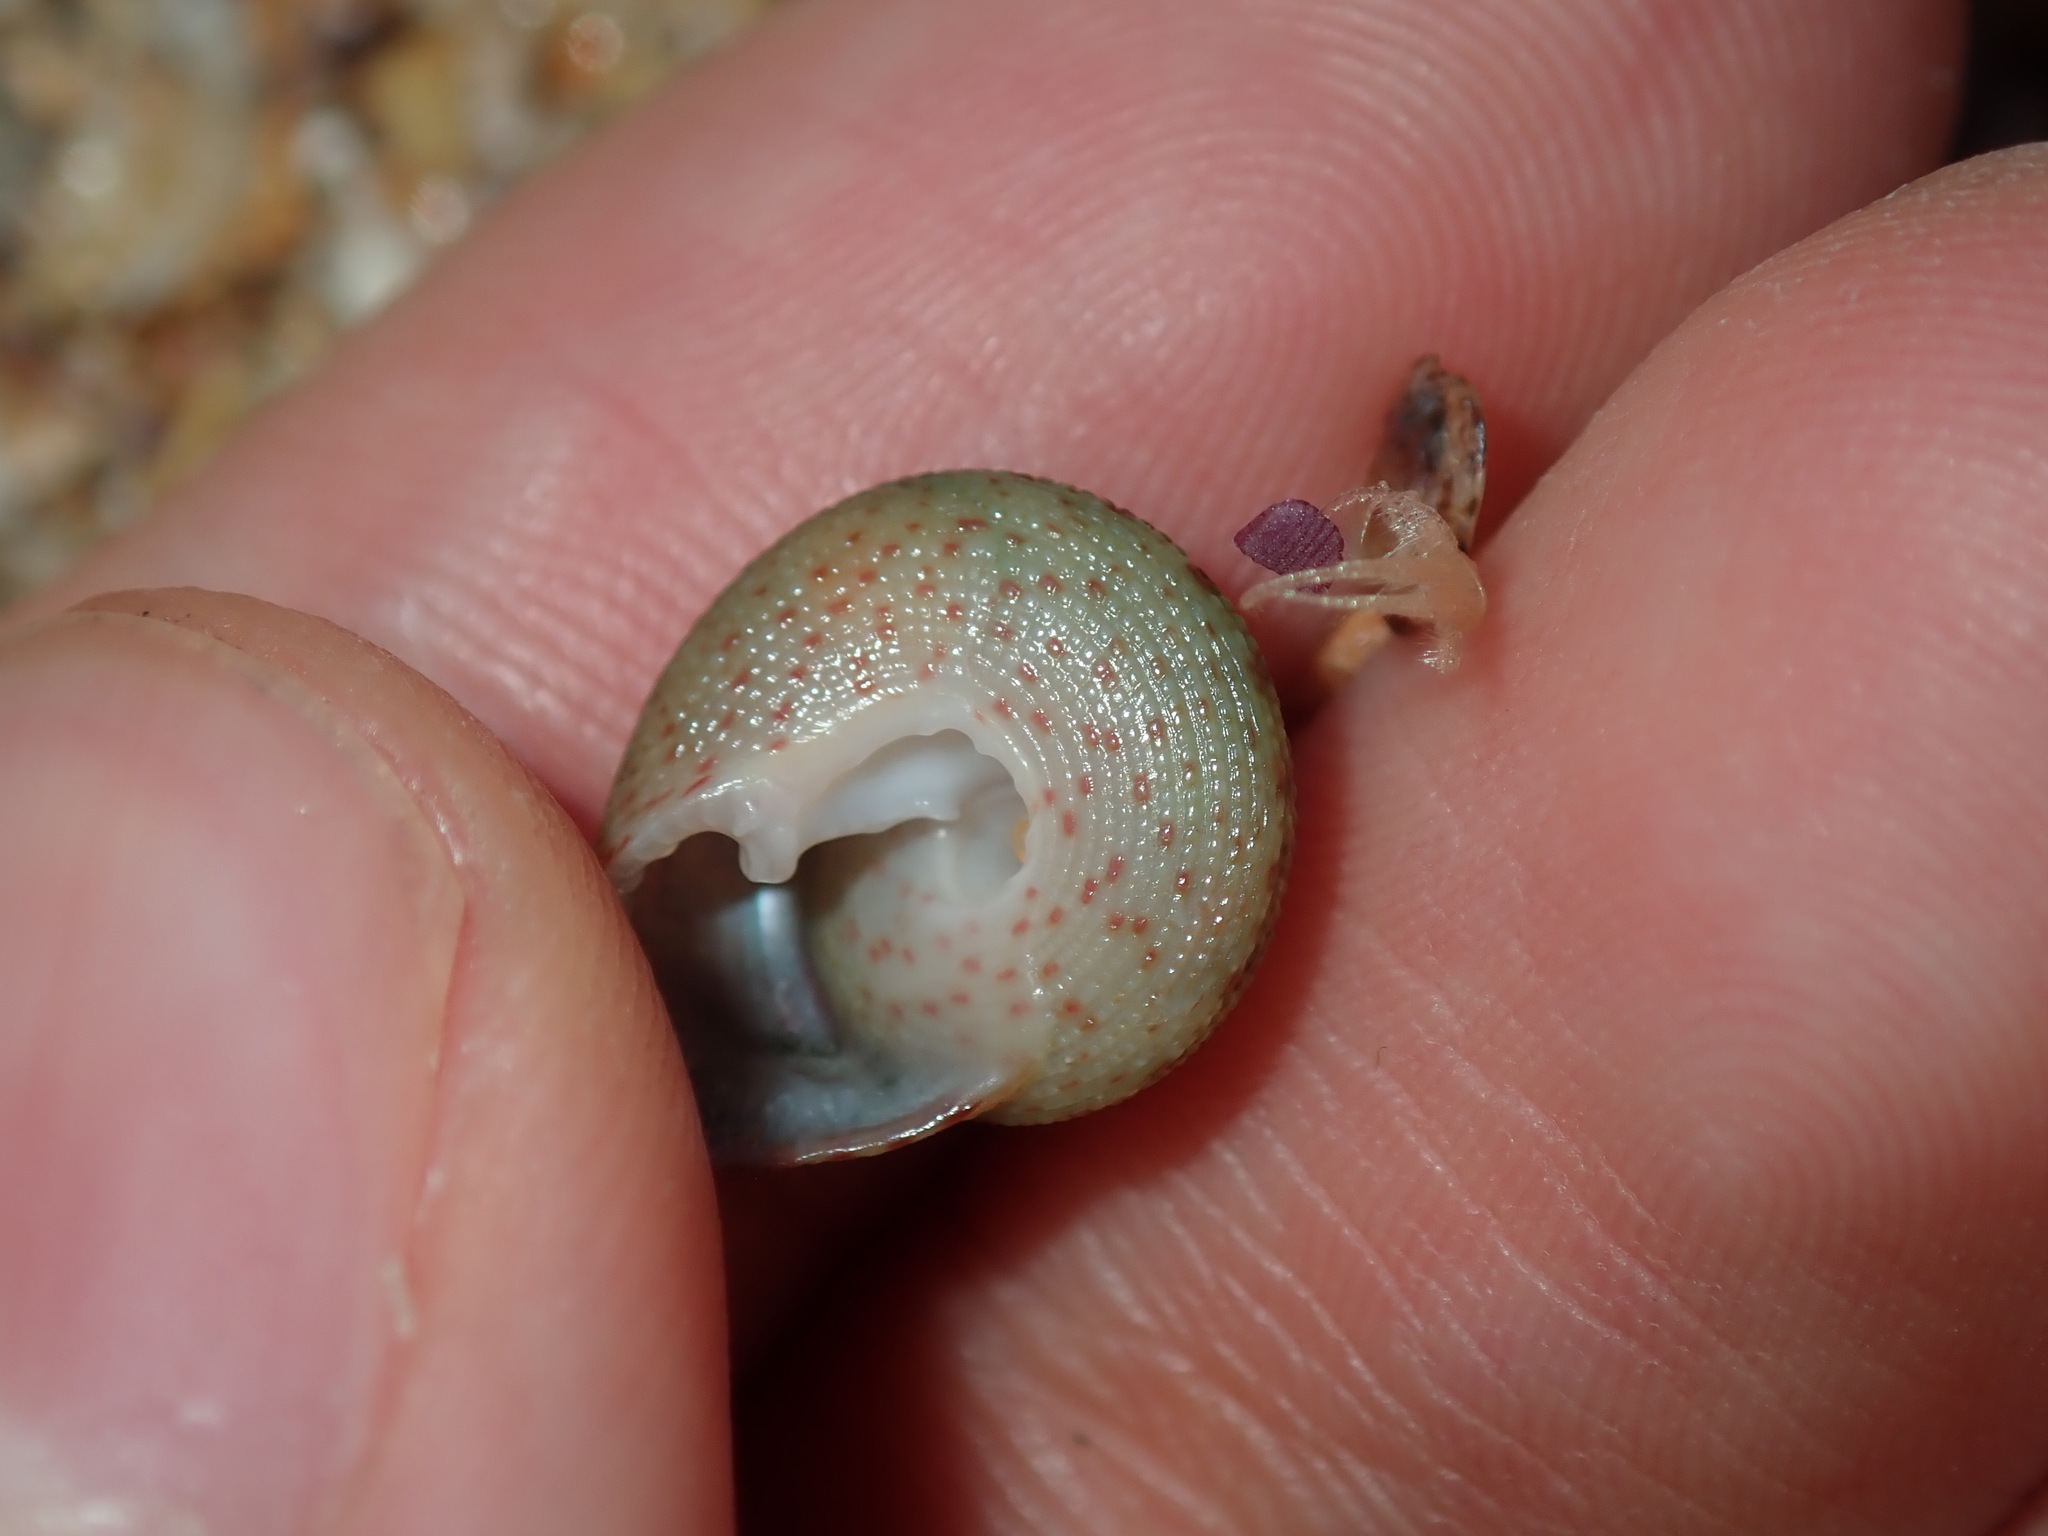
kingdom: Animalia
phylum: Mollusca
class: Gastropoda
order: Trochida
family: Trochidae
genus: Clanculus
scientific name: Clanculus clangulus
